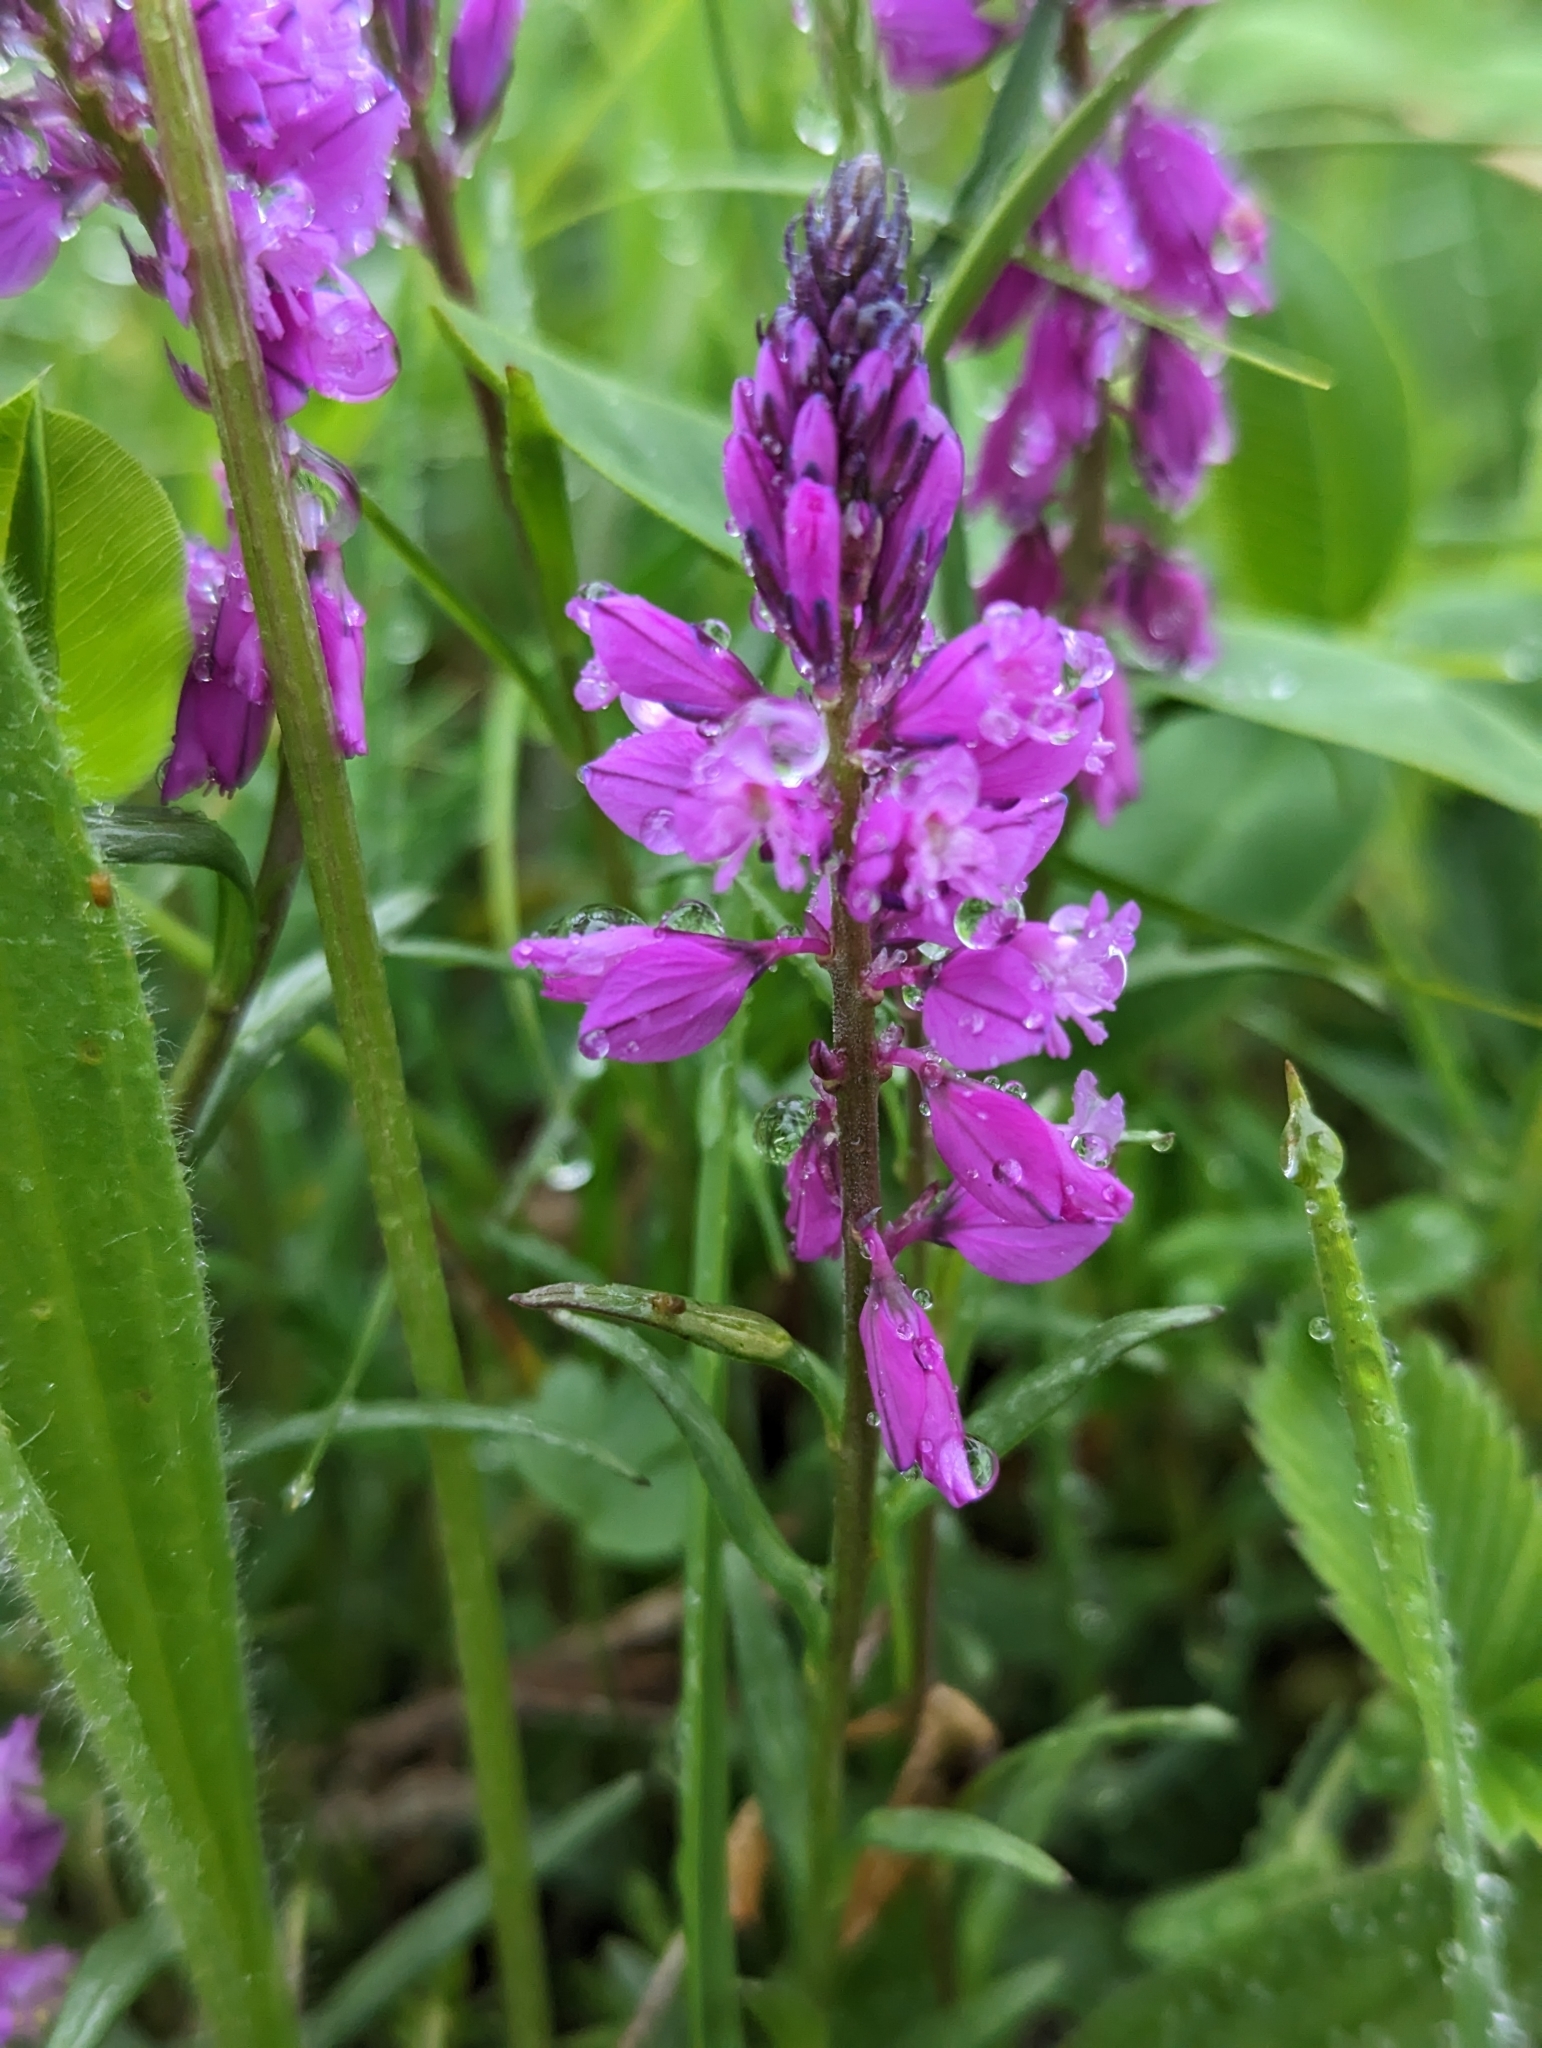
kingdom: Plantae
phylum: Tracheophyta
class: Magnoliopsida
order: Fabales
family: Polygalaceae
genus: Polygala
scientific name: Polygala comosa
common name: Tufted milkwort
